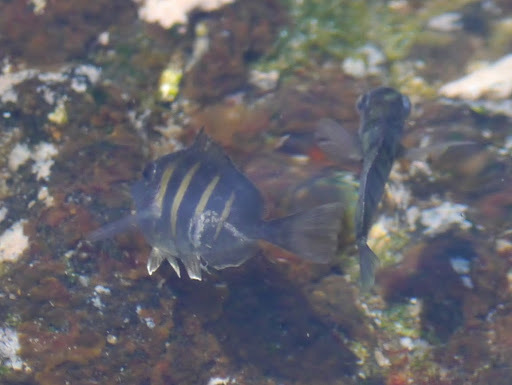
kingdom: Animalia
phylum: Chordata
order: Perciformes
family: Acanthuridae
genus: Acanthurus
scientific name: Acanthurus triostegus
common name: Convict surgeonfish
